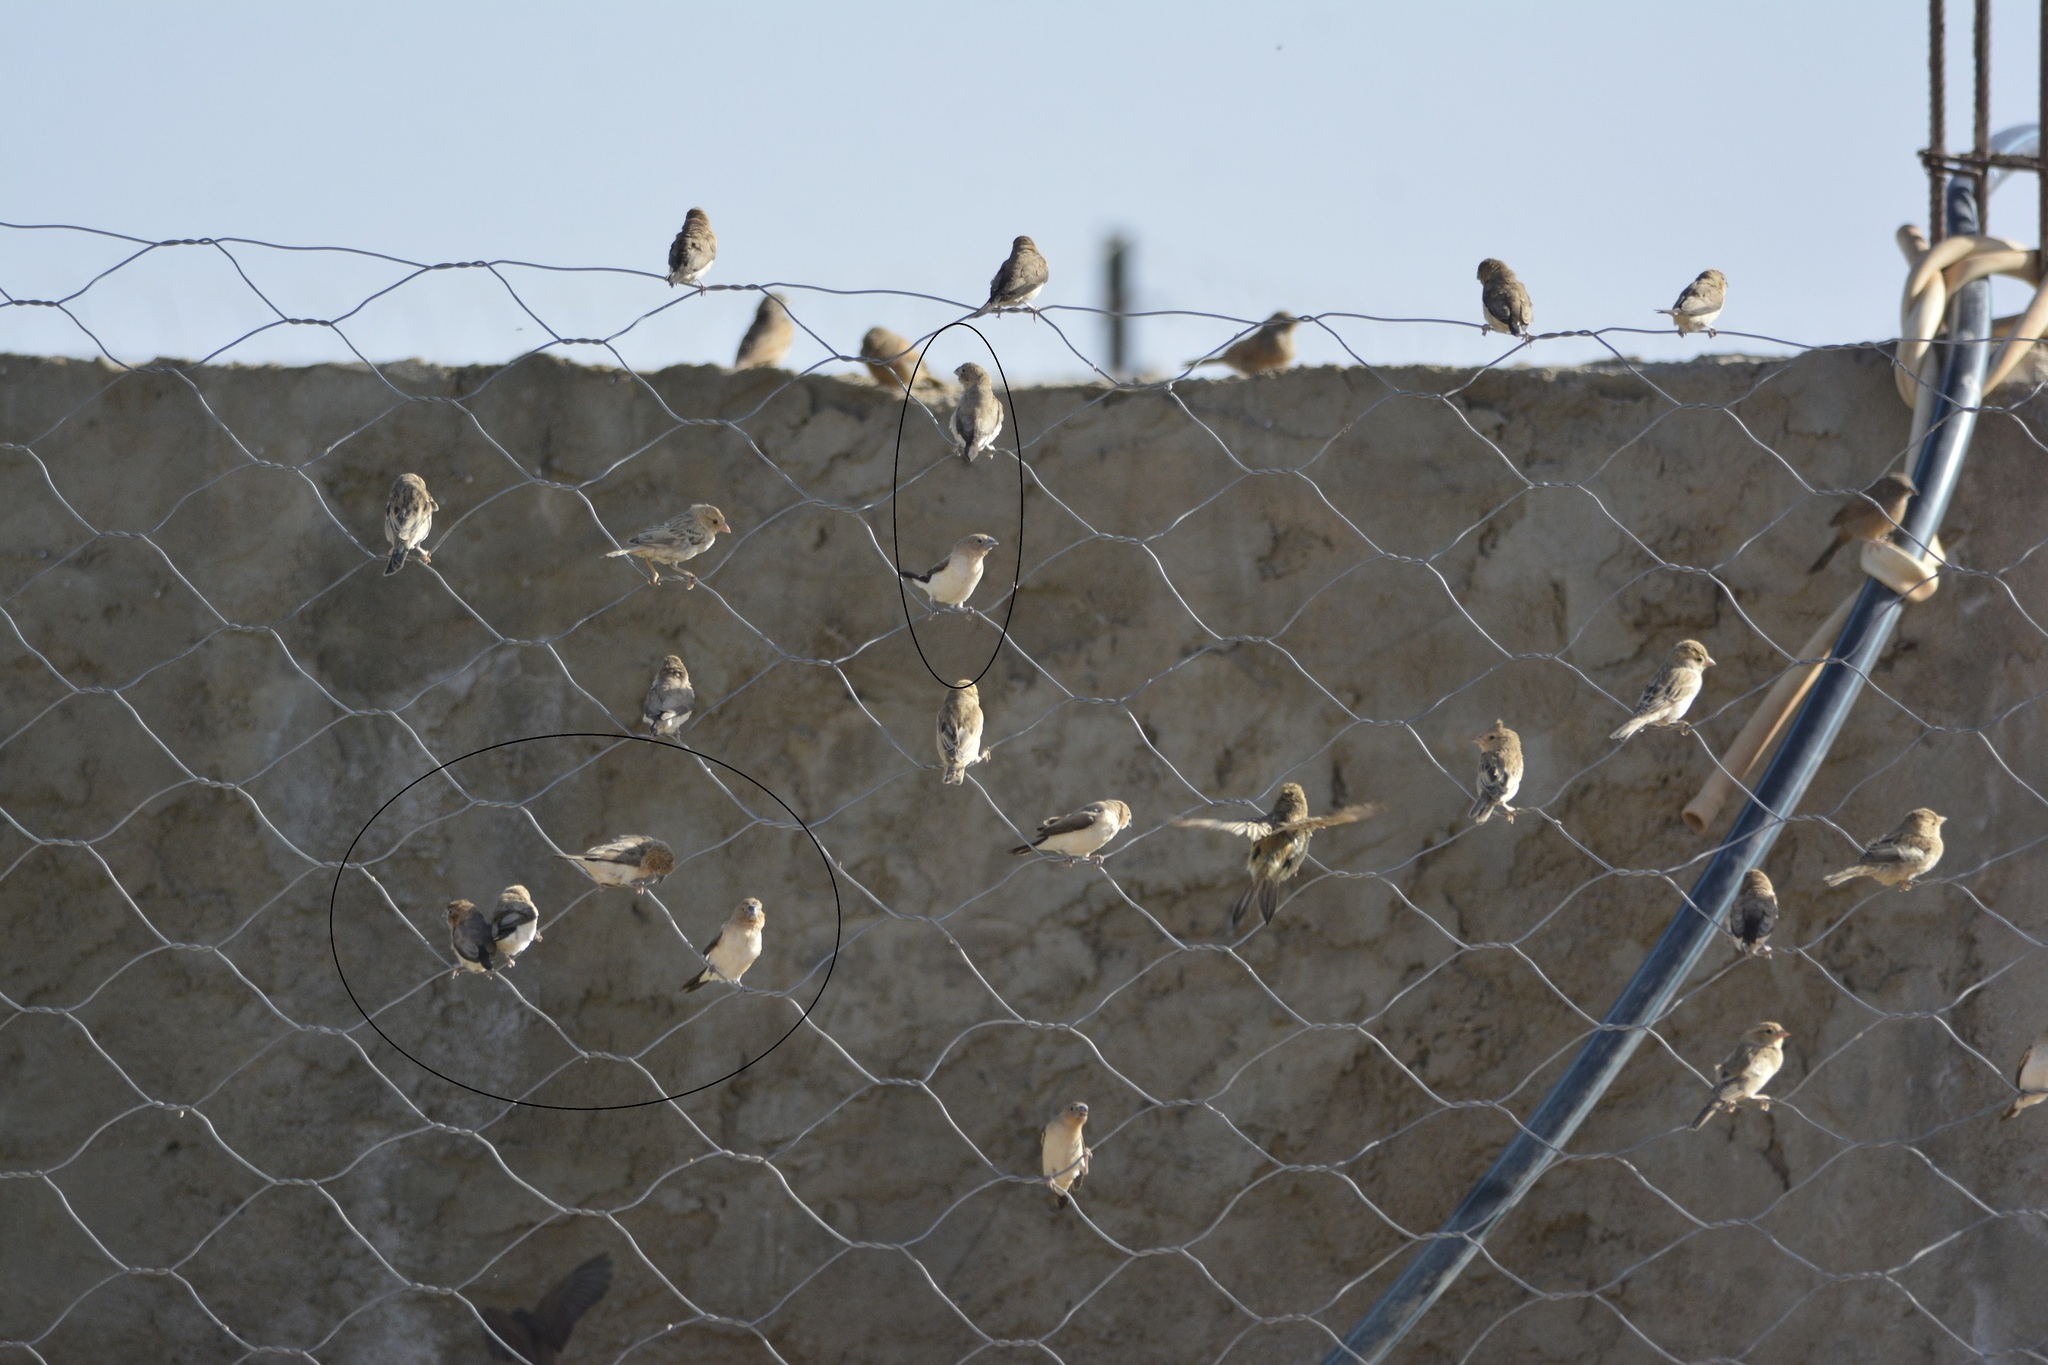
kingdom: Animalia
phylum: Chordata
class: Aves
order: Passeriformes
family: Estrildidae
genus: Euodice
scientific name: Euodice cantans
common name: African silverbill
